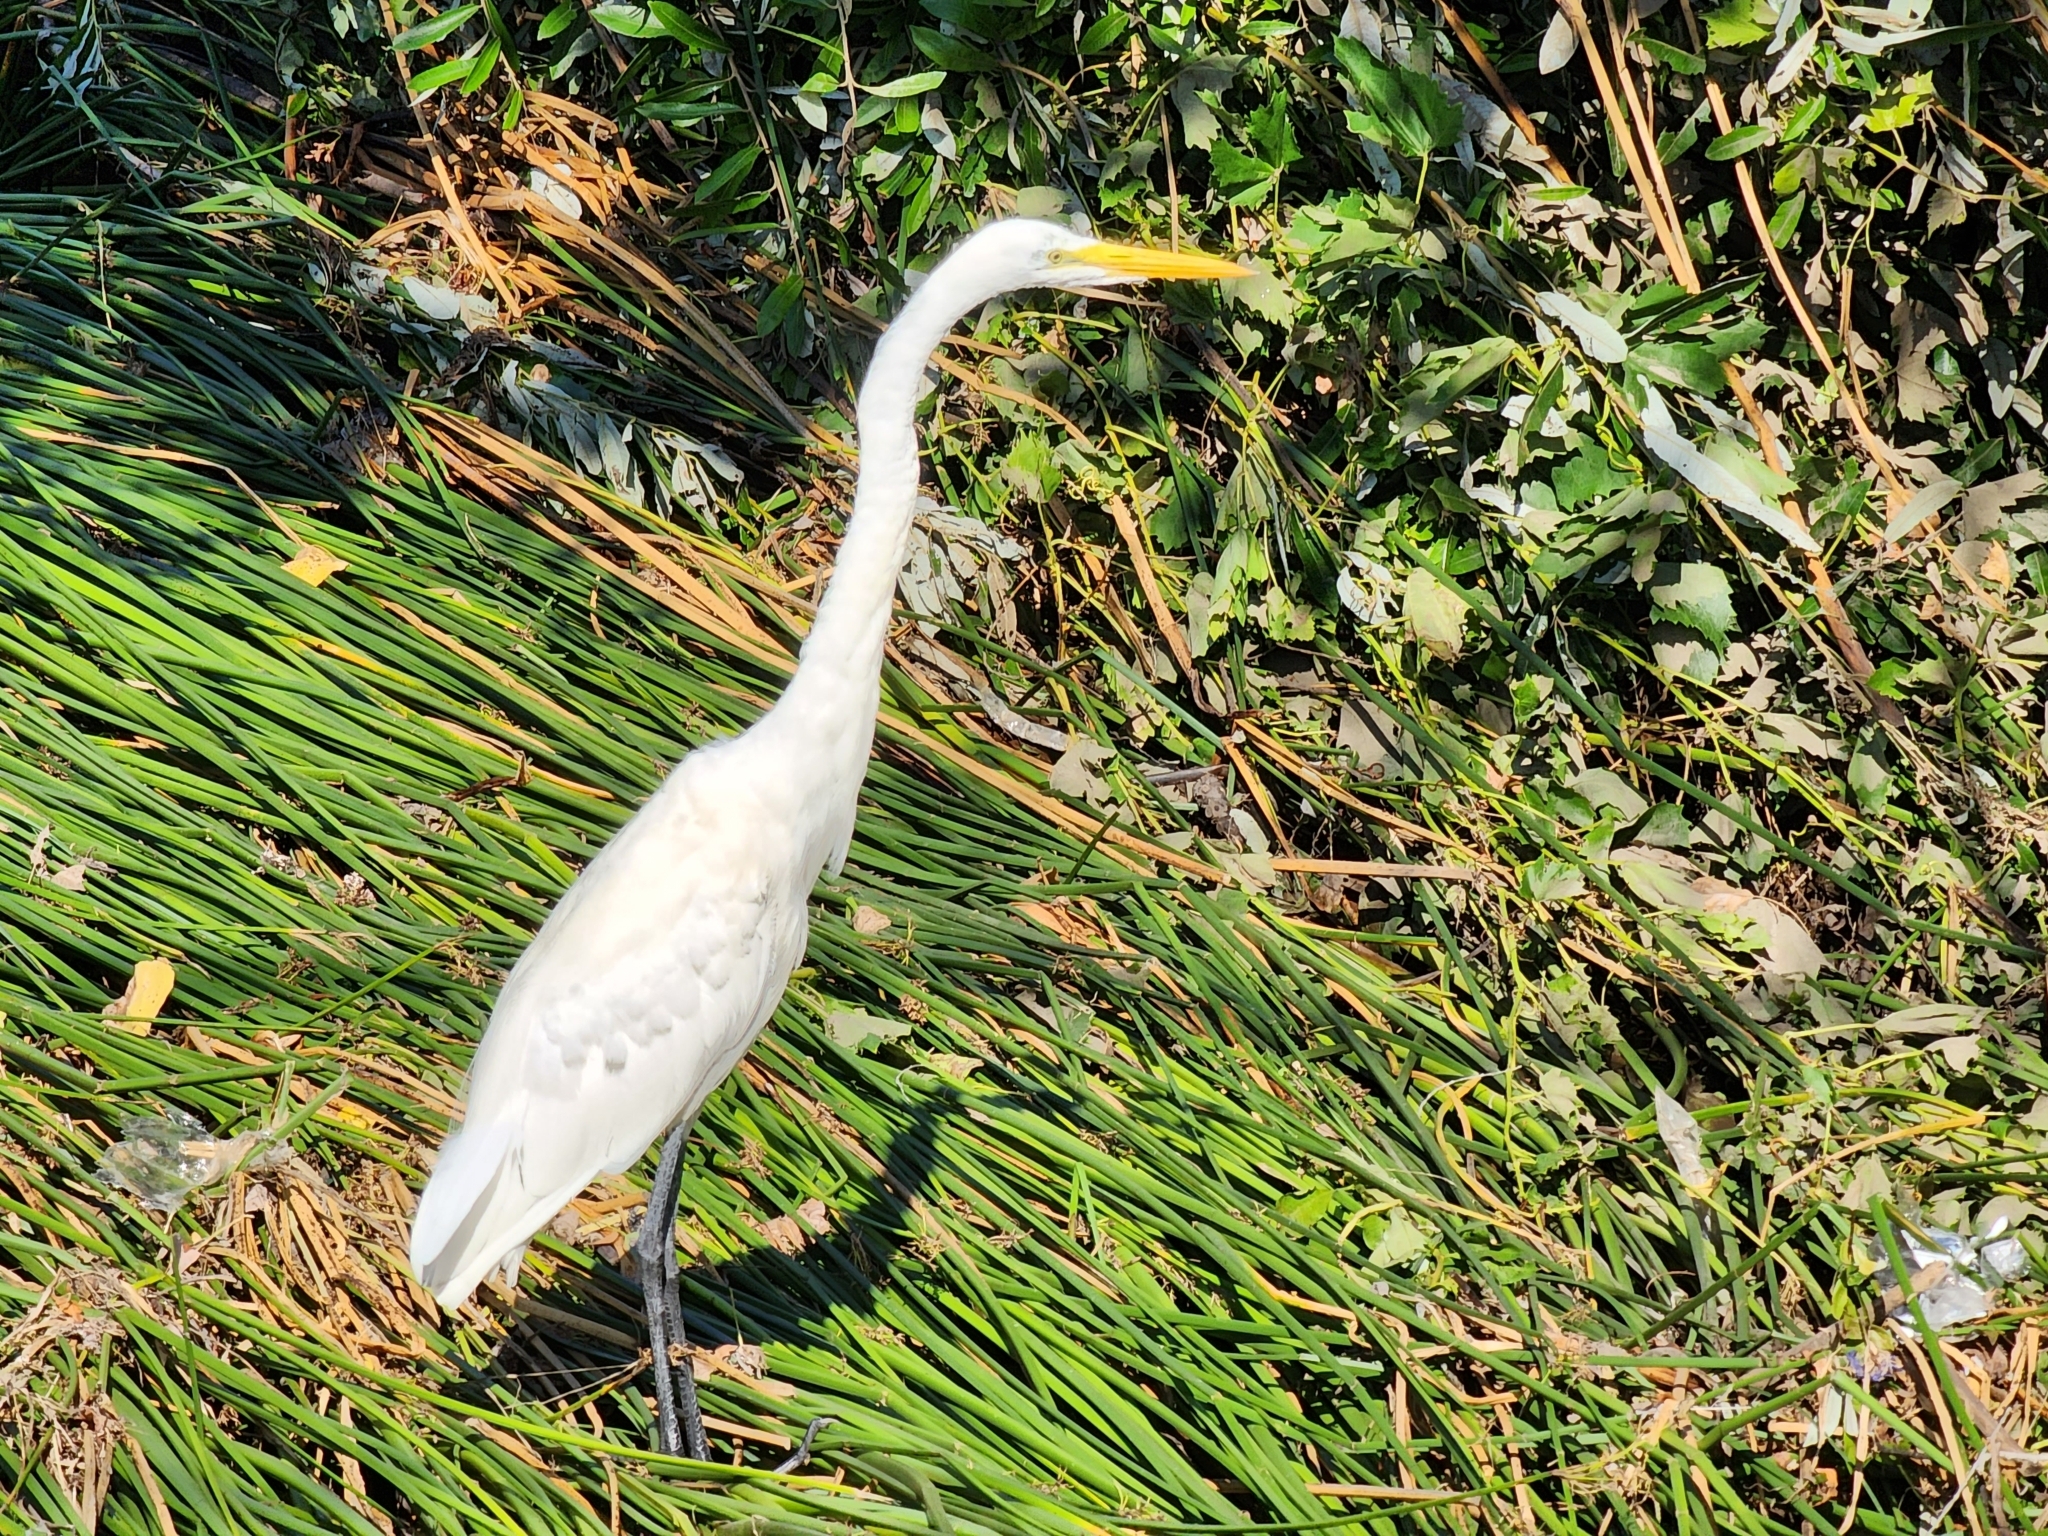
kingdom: Animalia
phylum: Chordata
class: Aves
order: Pelecaniformes
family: Ardeidae
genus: Ardea
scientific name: Ardea alba
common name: Great egret
